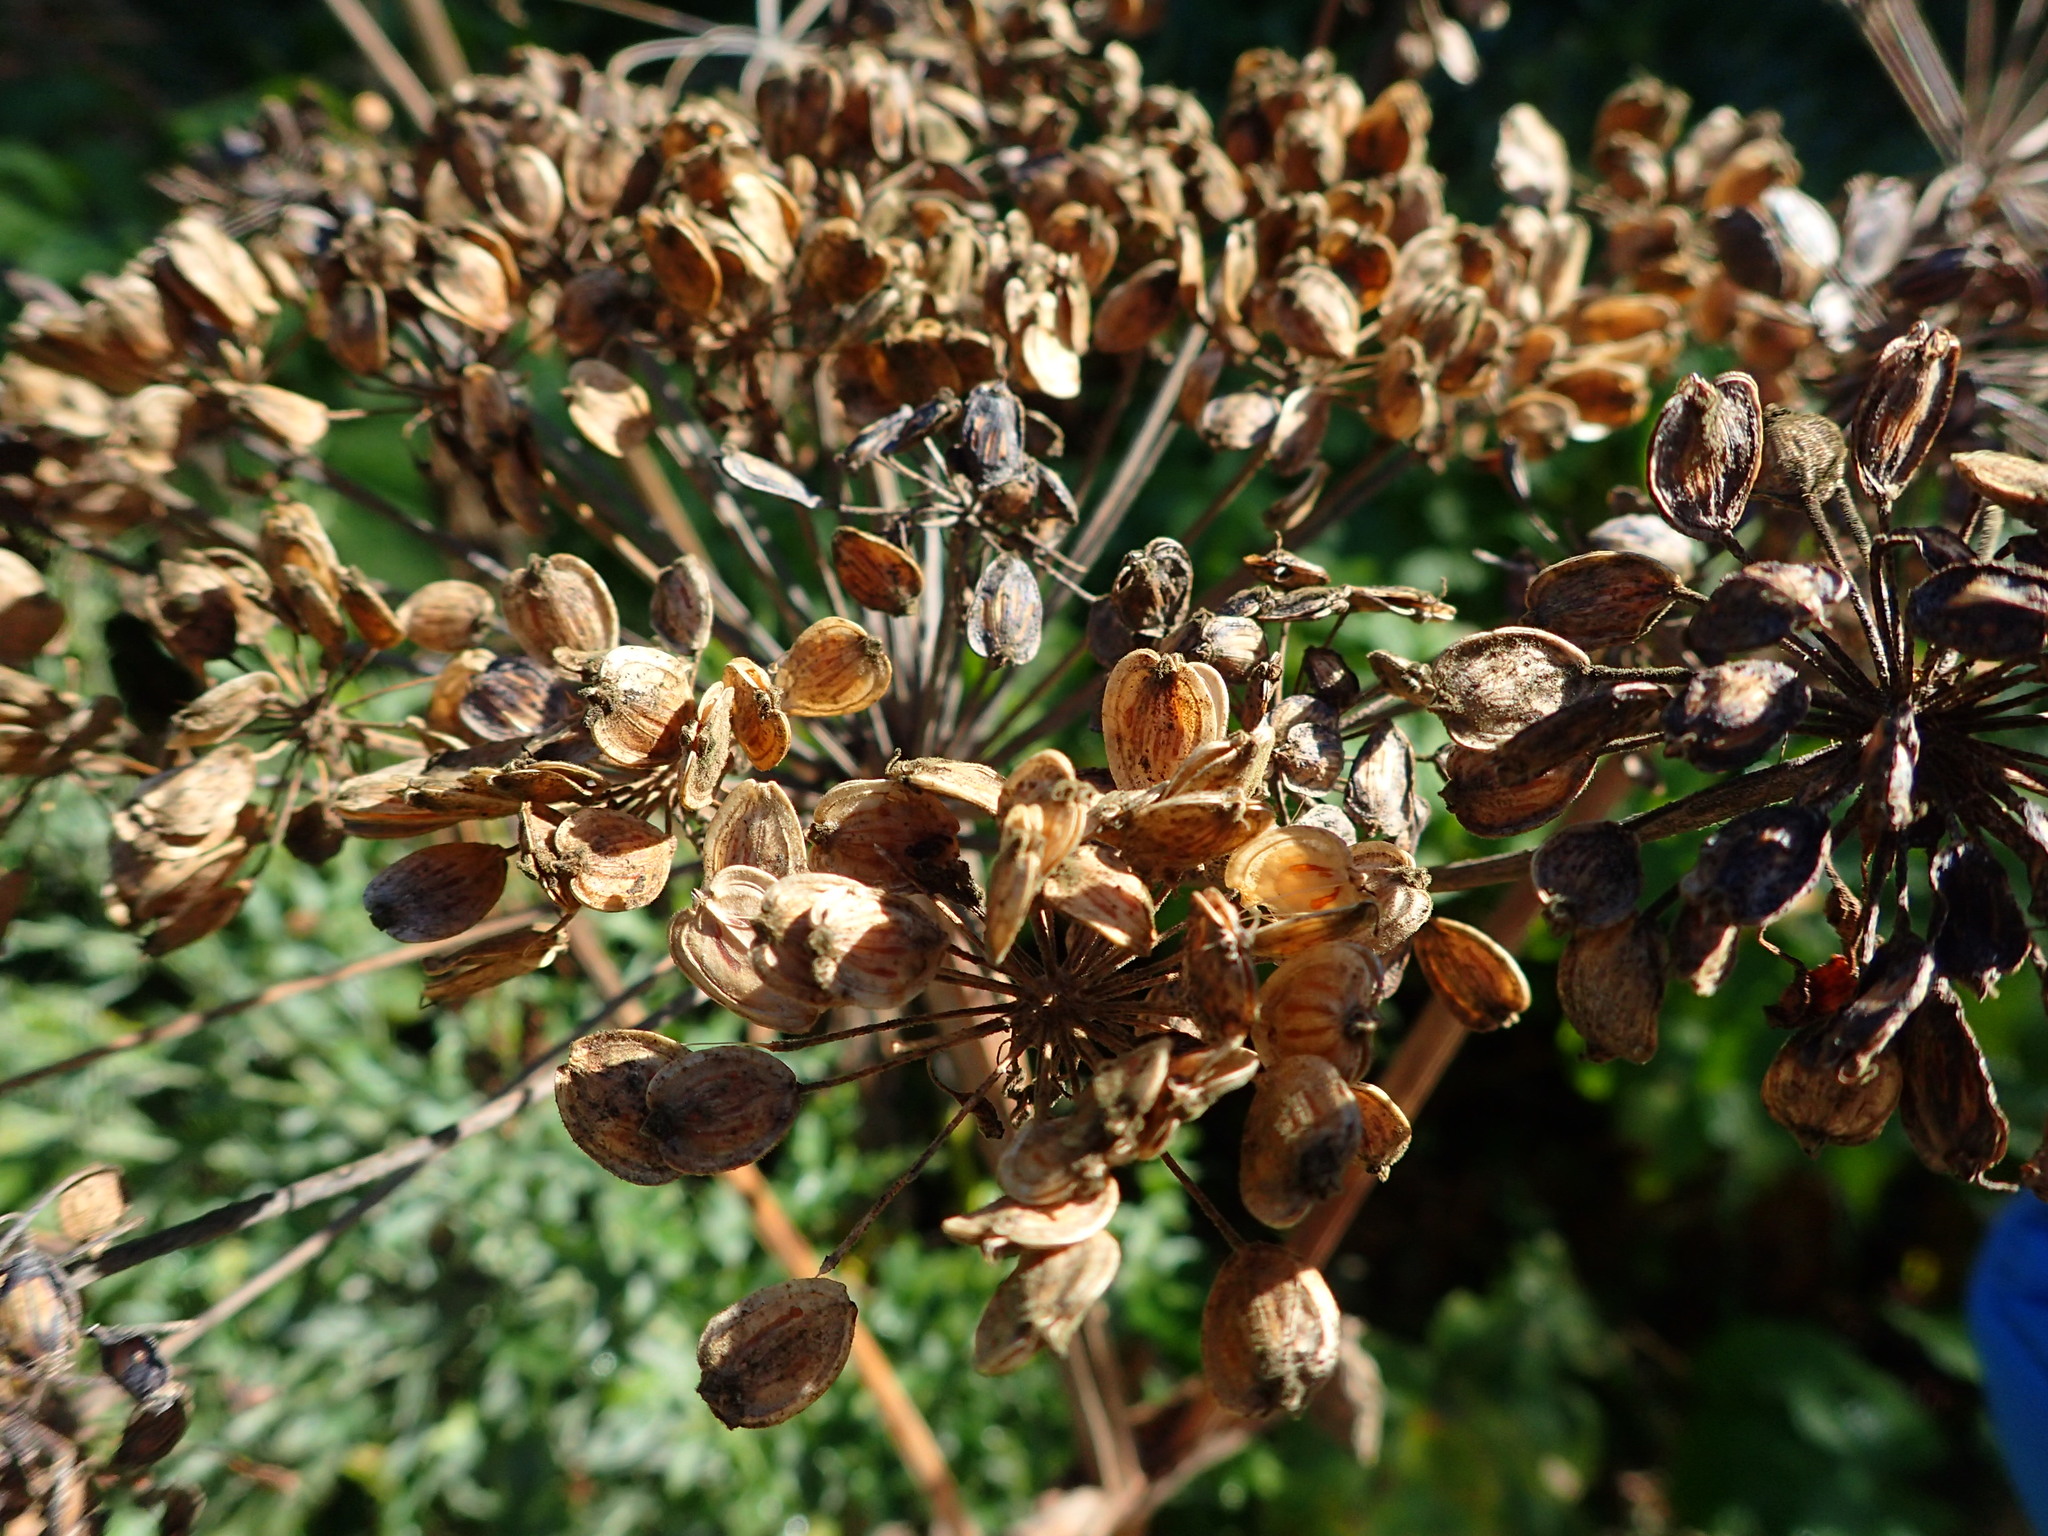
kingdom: Plantae
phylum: Tracheophyta
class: Magnoliopsida
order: Apiales
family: Apiaceae
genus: Heracleum
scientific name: Heracleum maximum
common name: American cow parsnip
